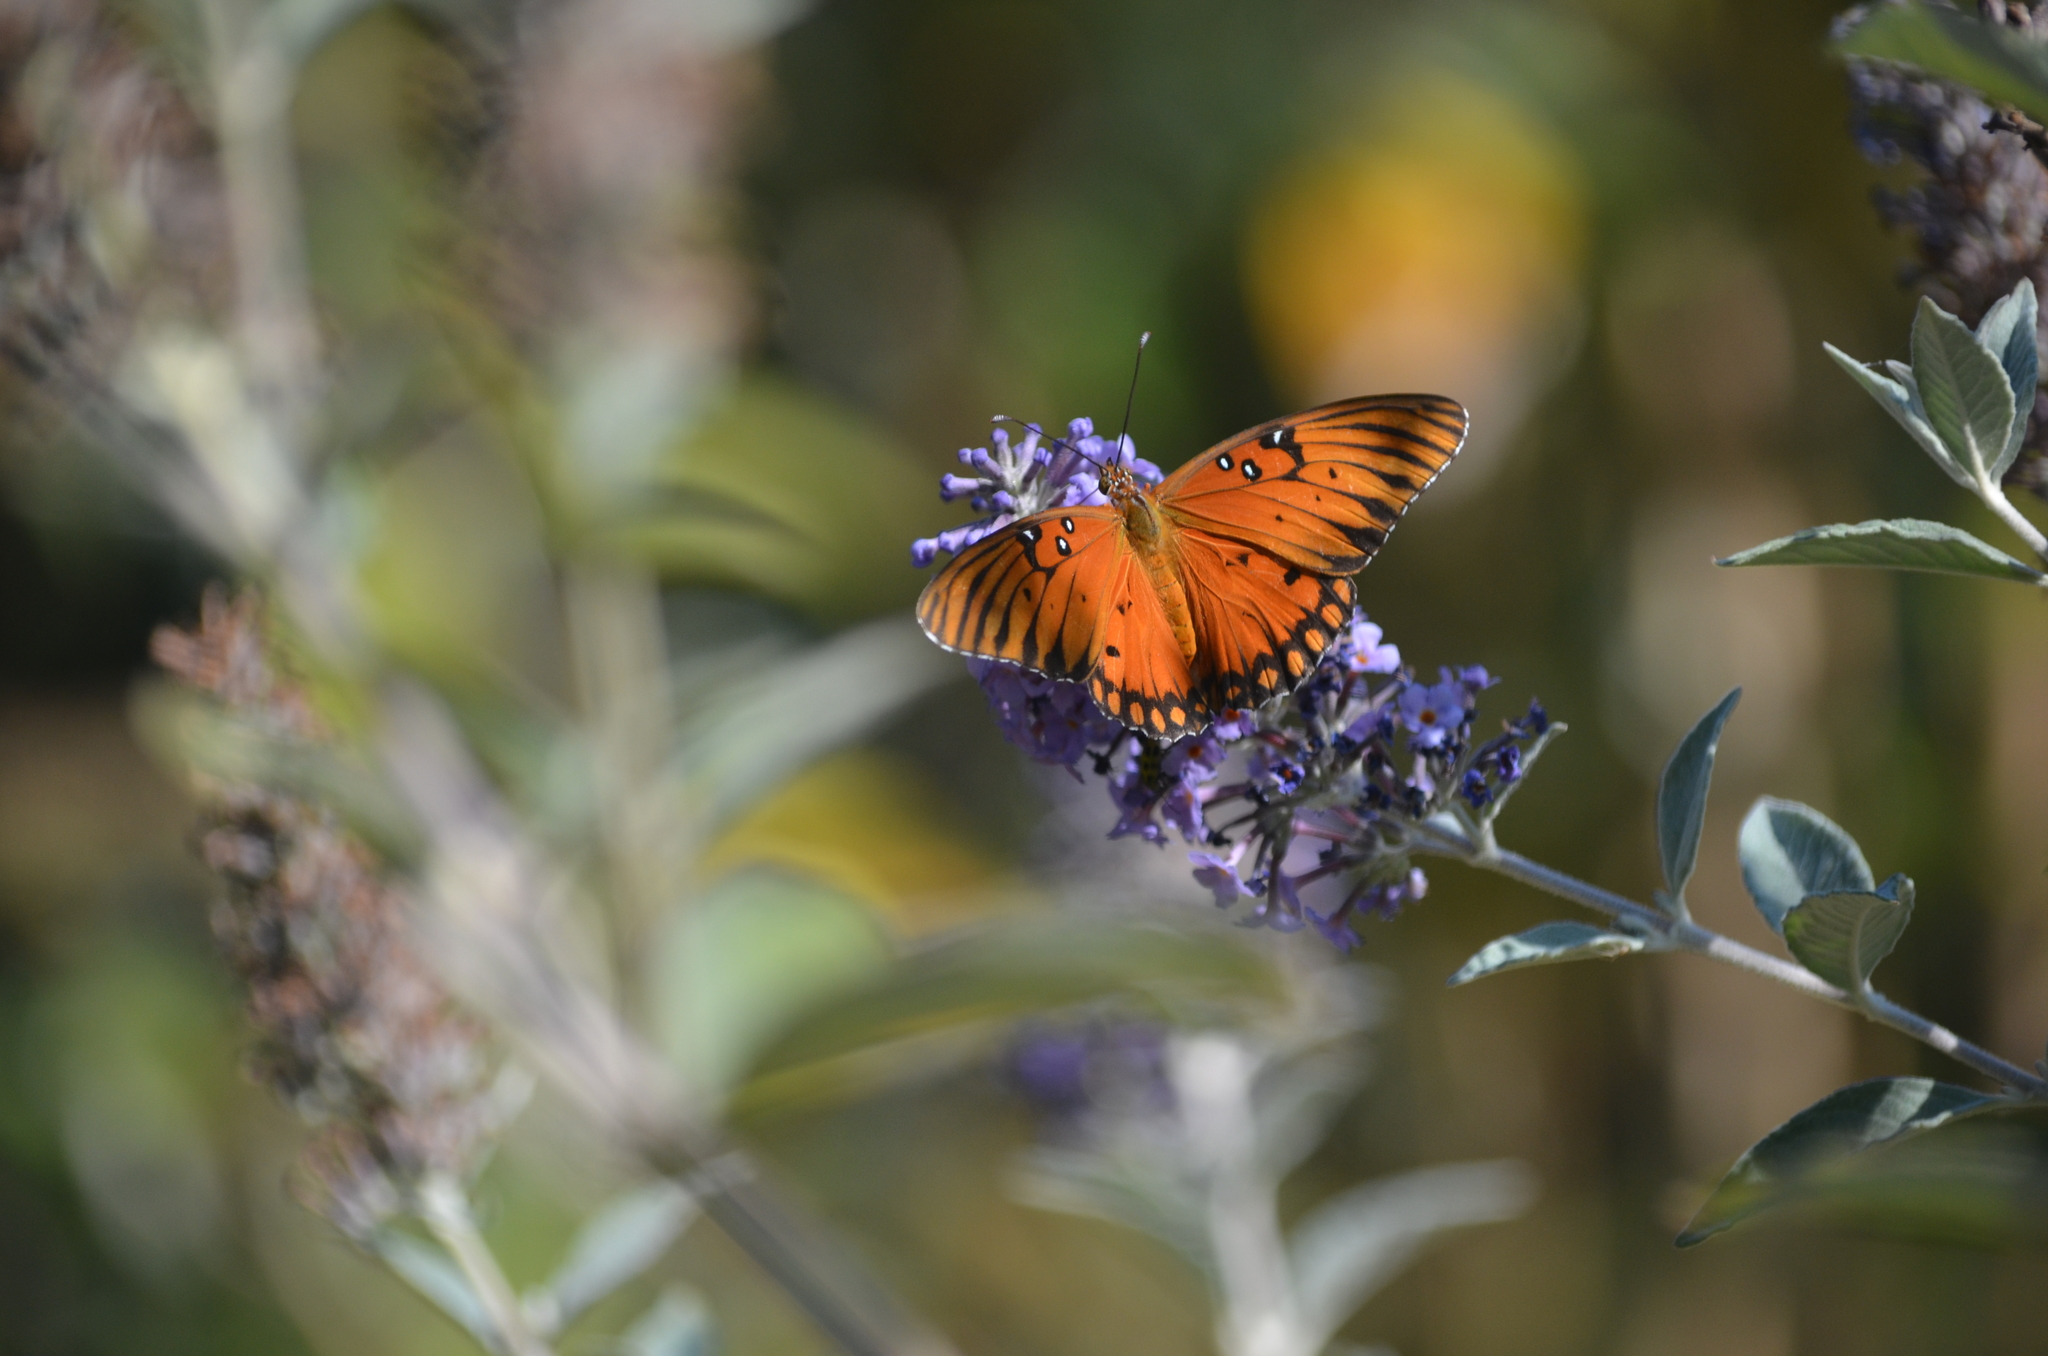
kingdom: Animalia
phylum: Arthropoda
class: Insecta
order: Lepidoptera
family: Nymphalidae
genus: Dione
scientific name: Dione vanillae
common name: Gulf fritillary
